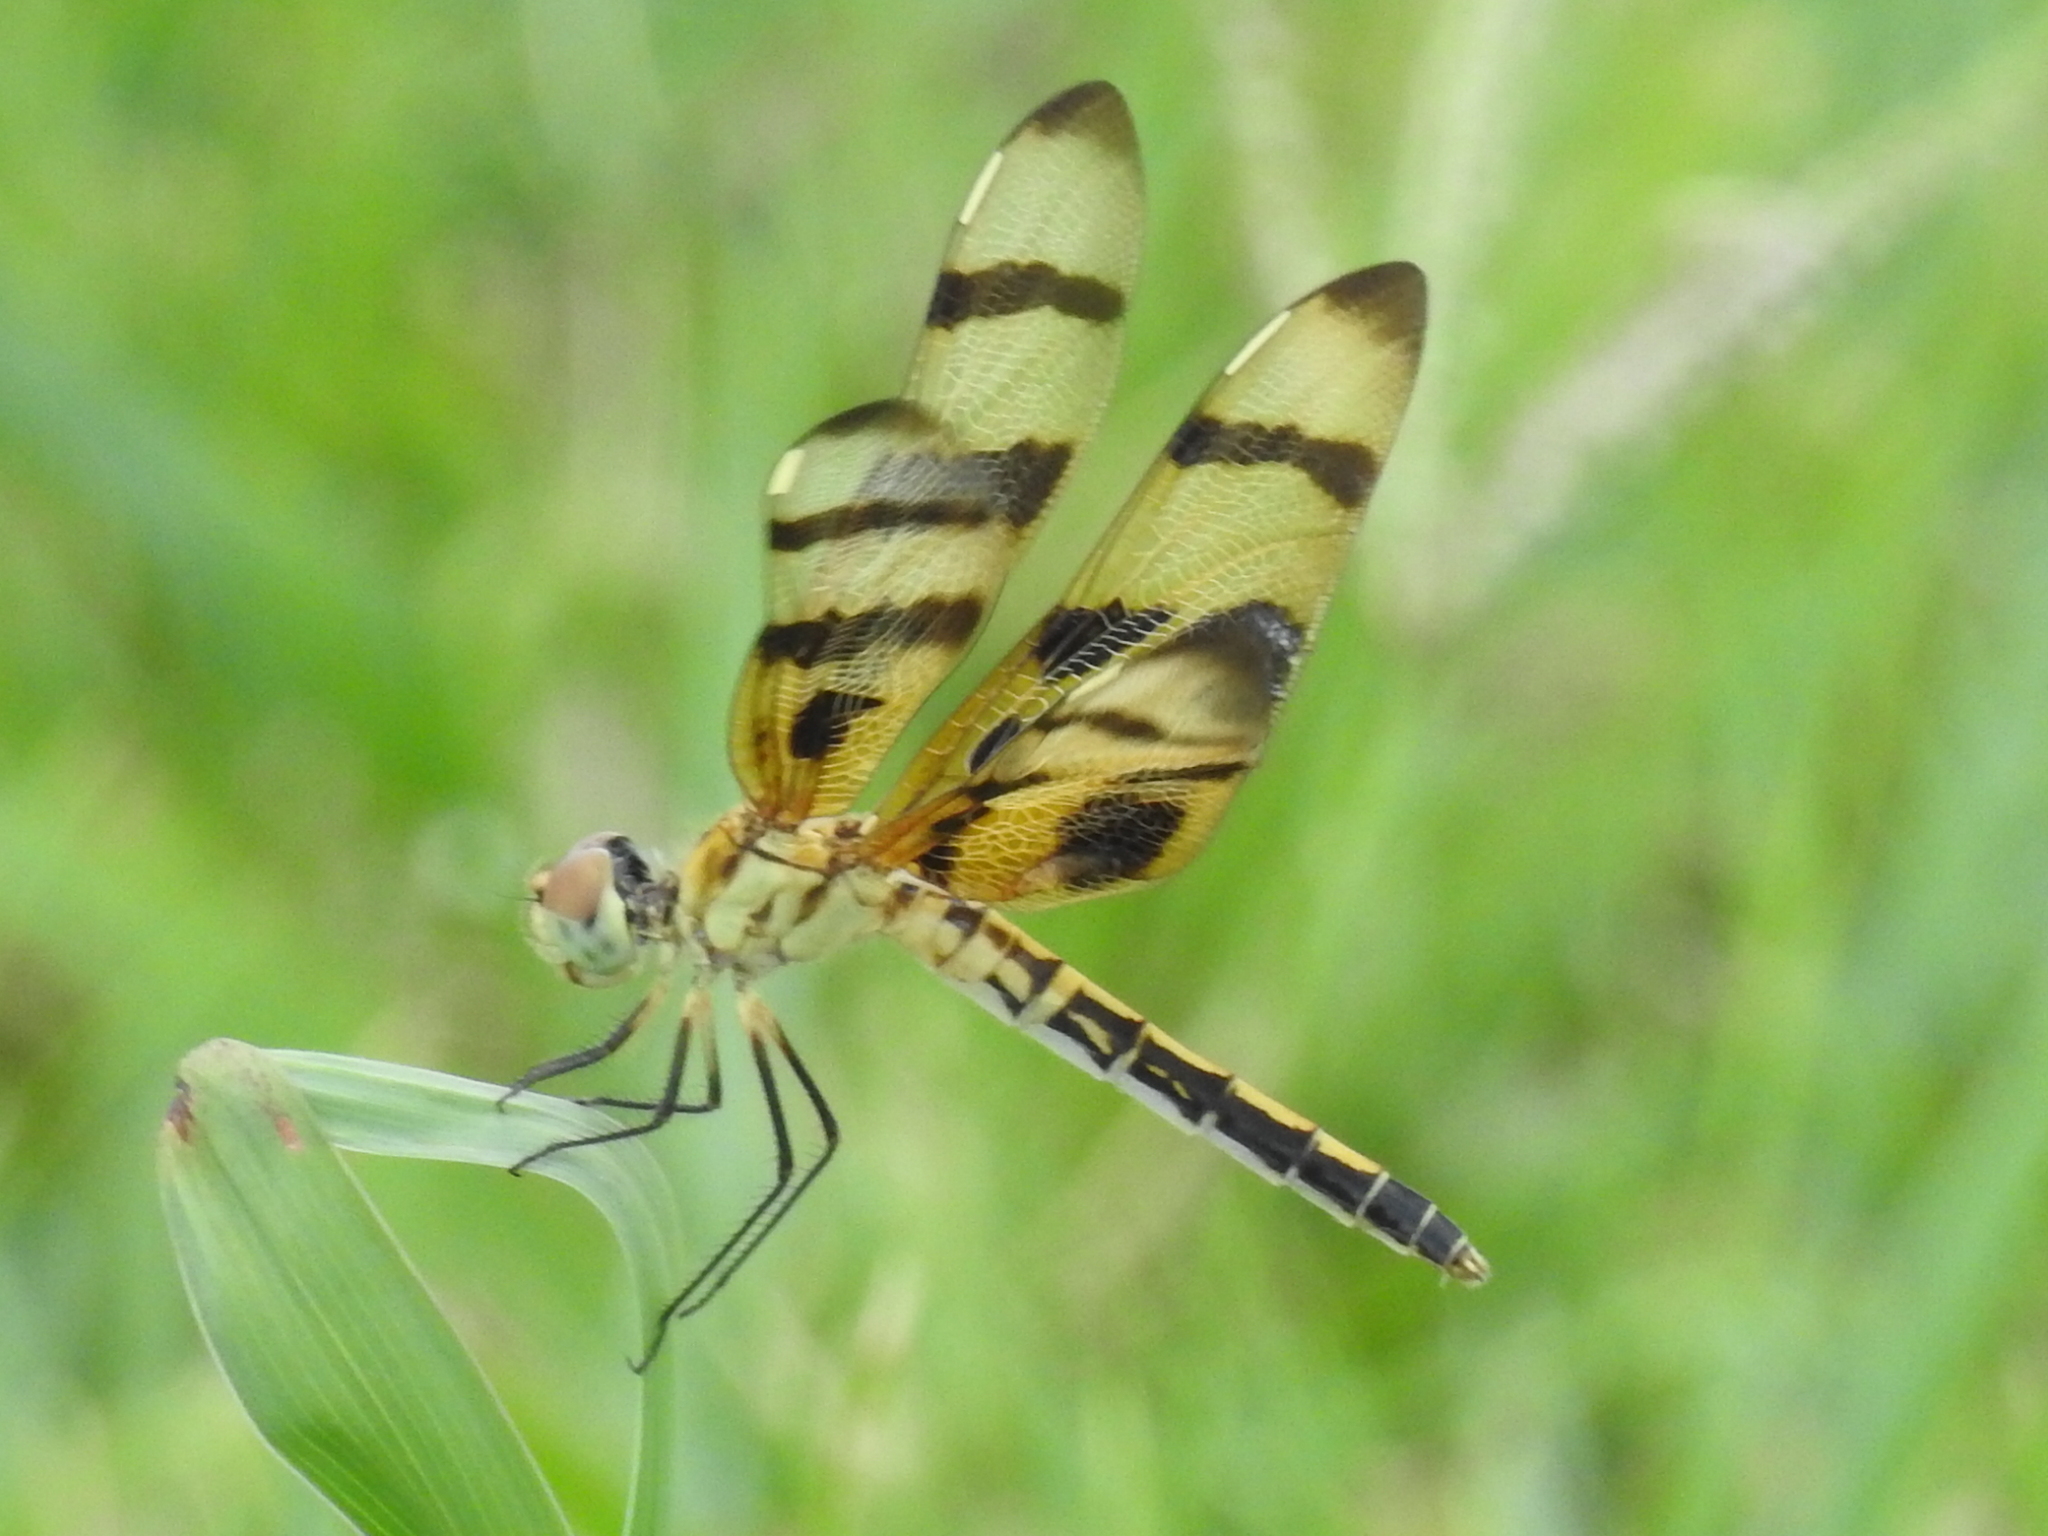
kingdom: Animalia
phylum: Arthropoda
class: Insecta
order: Odonata
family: Libellulidae
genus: Celithemis
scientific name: Celithemis eponina
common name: Halloween pennant
